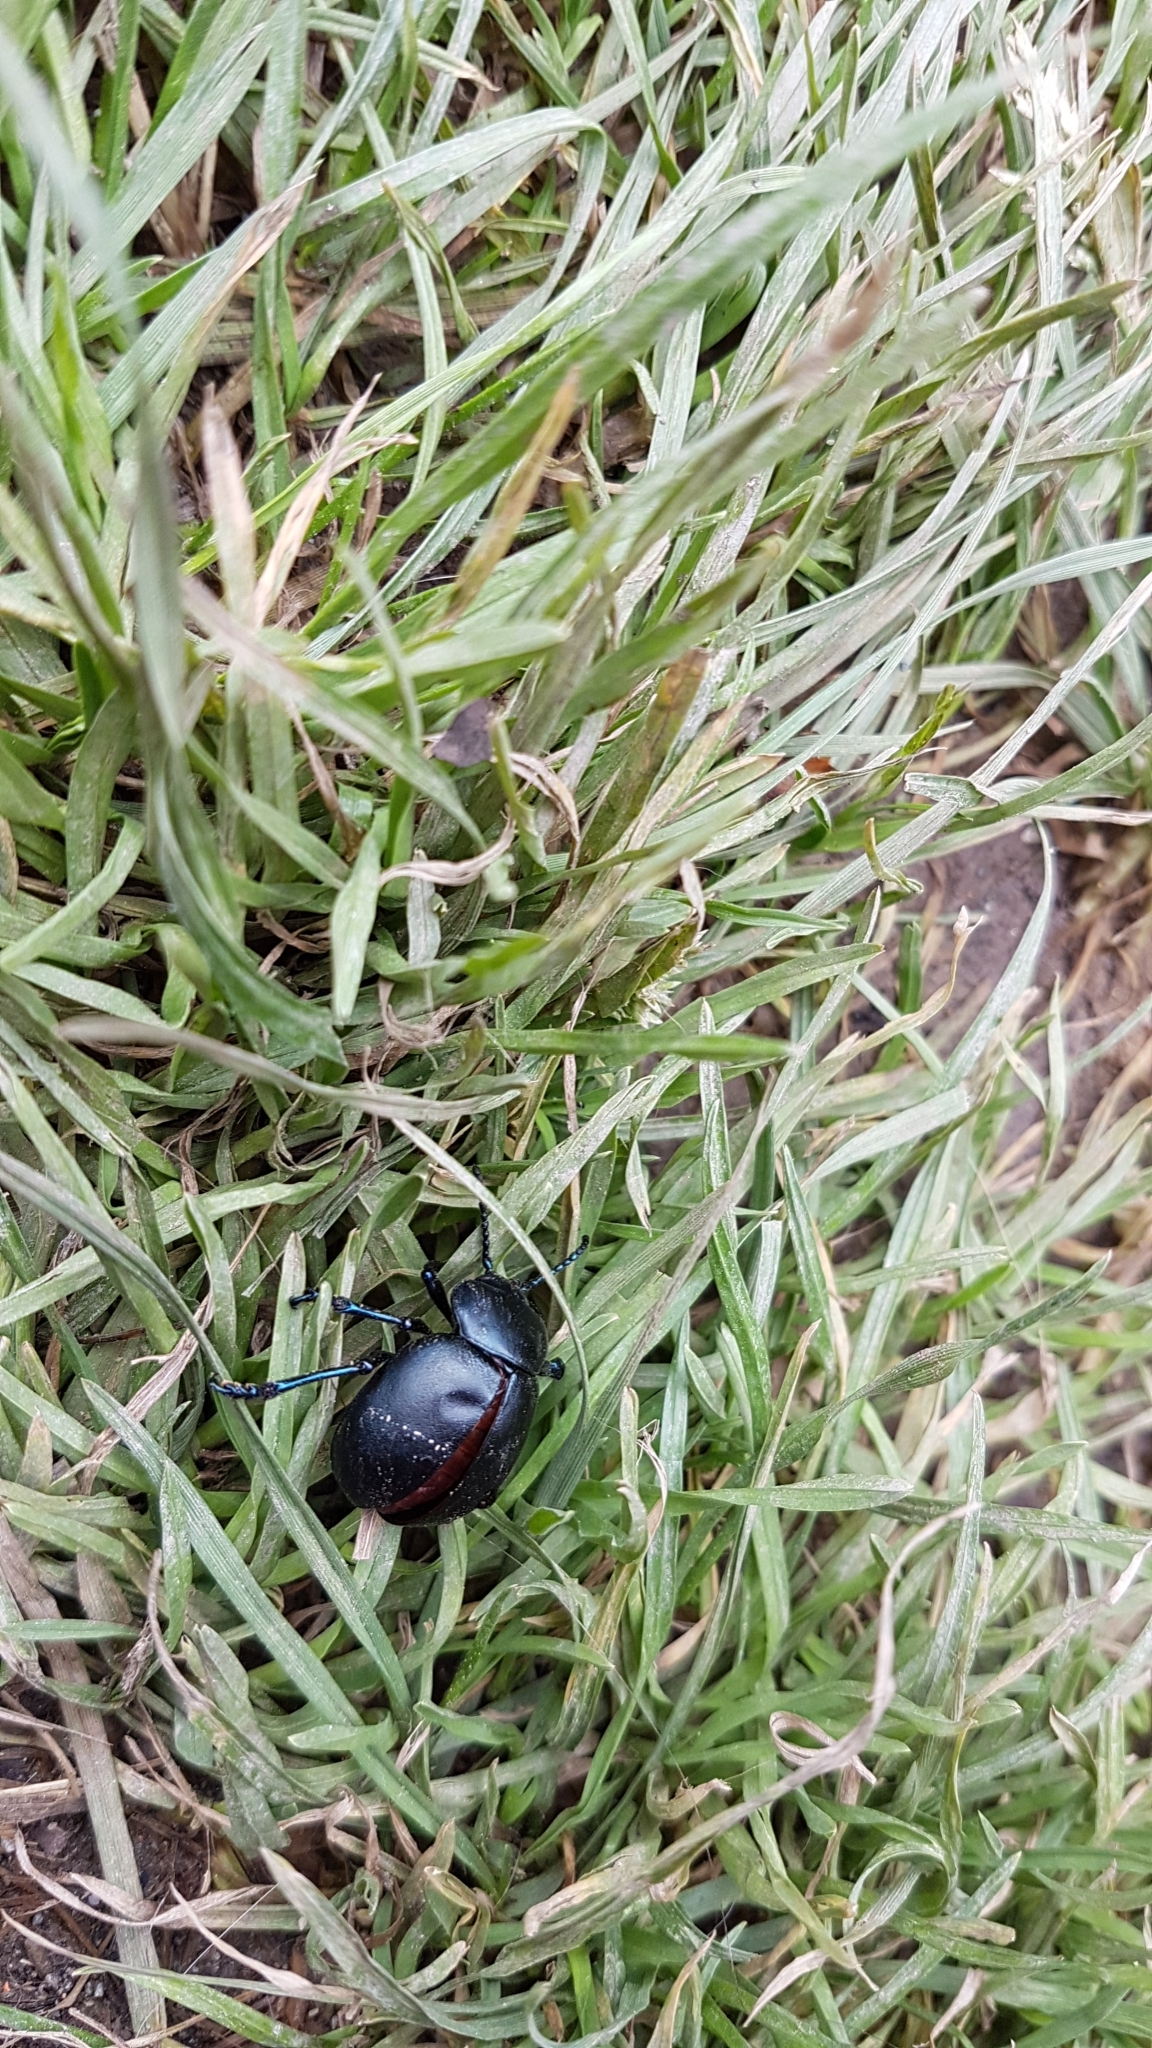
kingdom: Animalia
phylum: Arthropoda
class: Insecta
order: Coleoptera
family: Chrysomelidae
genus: Timarcha
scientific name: Timarcha tenebricosa
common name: Bloody-nosed beetle
